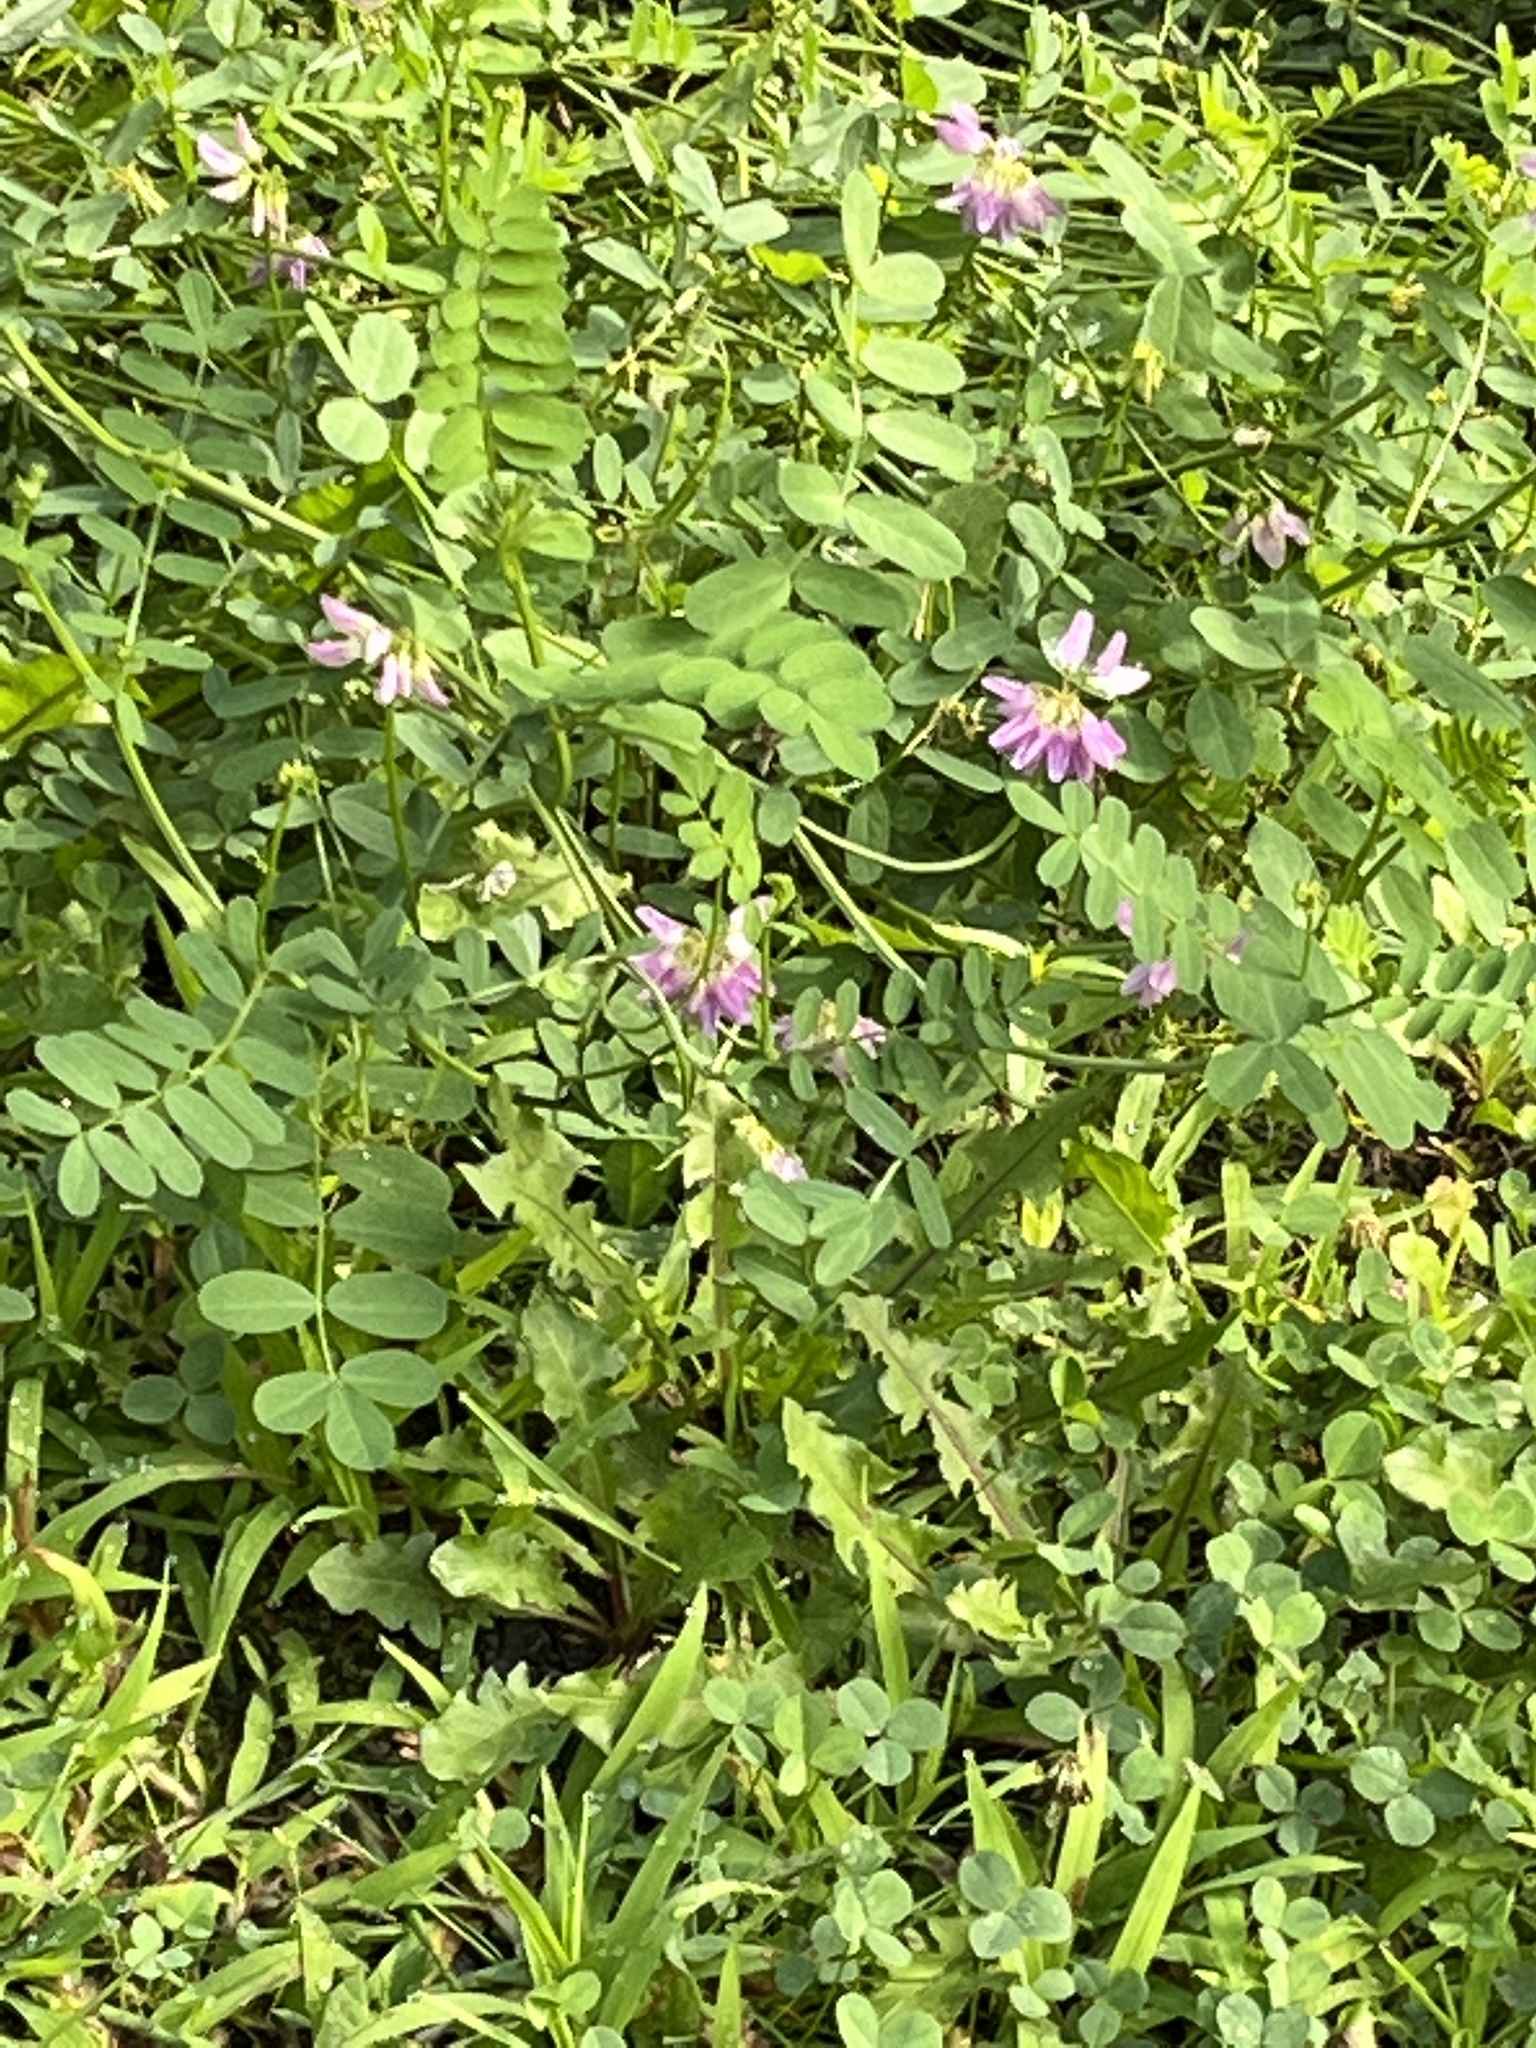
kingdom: Plantae
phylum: Tracheophyta
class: Magnoliopsida
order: Fabales
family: Fabaceae
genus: Coronilla
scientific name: Coronilla varia
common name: Crownvetch
